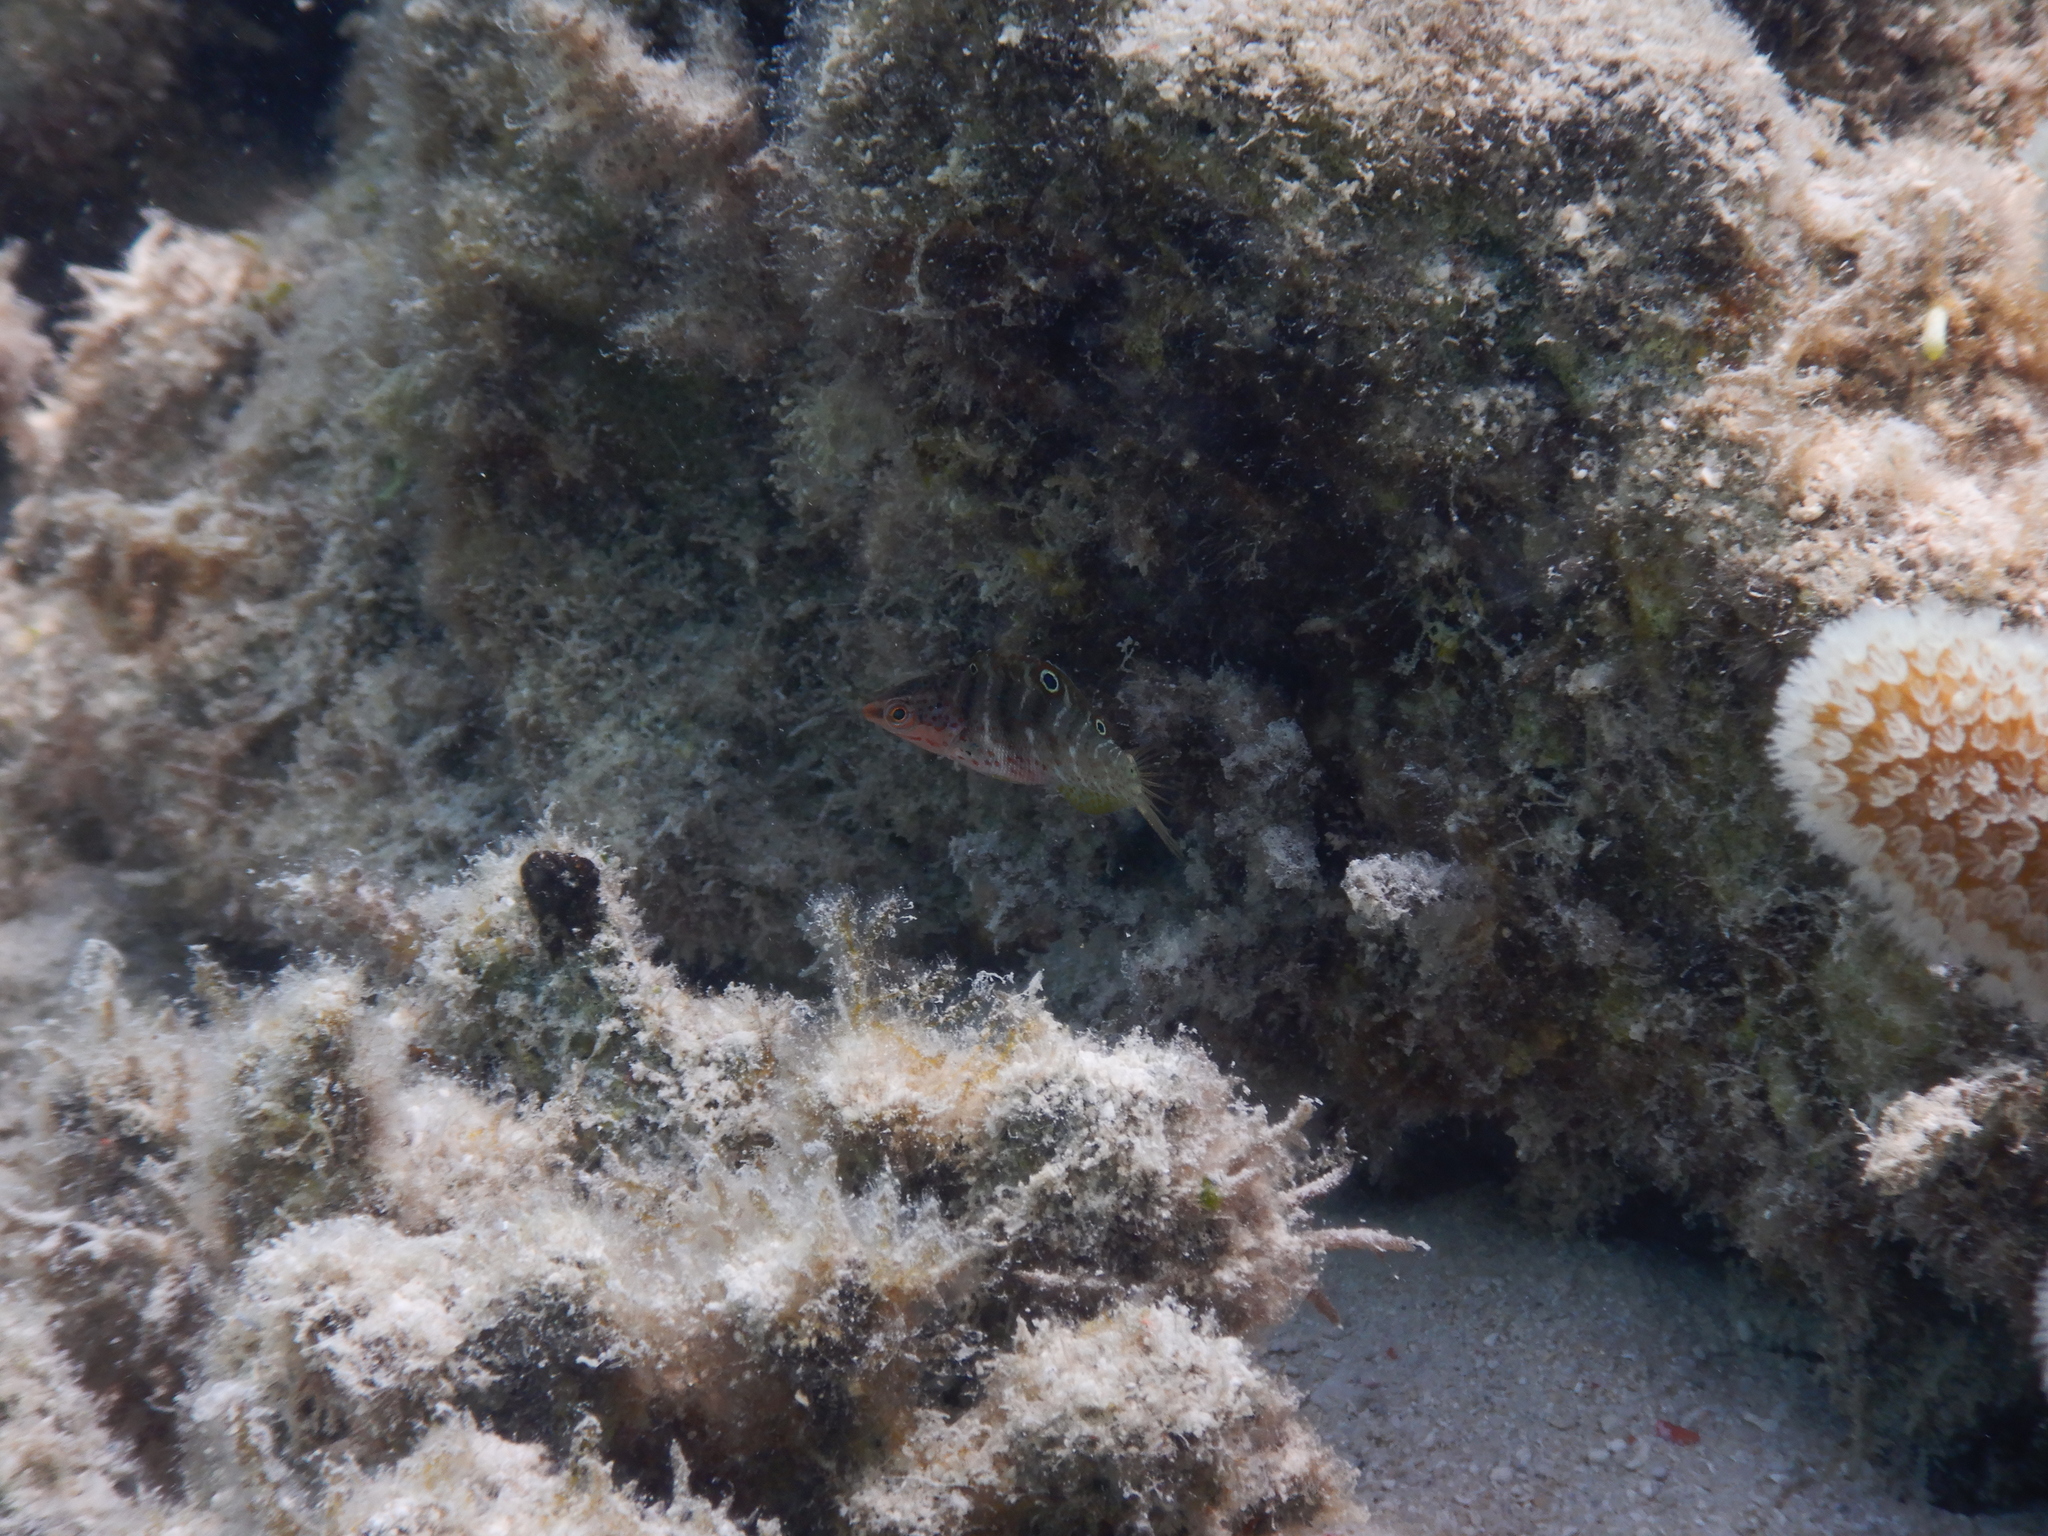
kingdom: Animalia
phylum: Chordata
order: Perciformes
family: Labridae
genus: Coris
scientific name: Coris batuensis
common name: Batu coris
